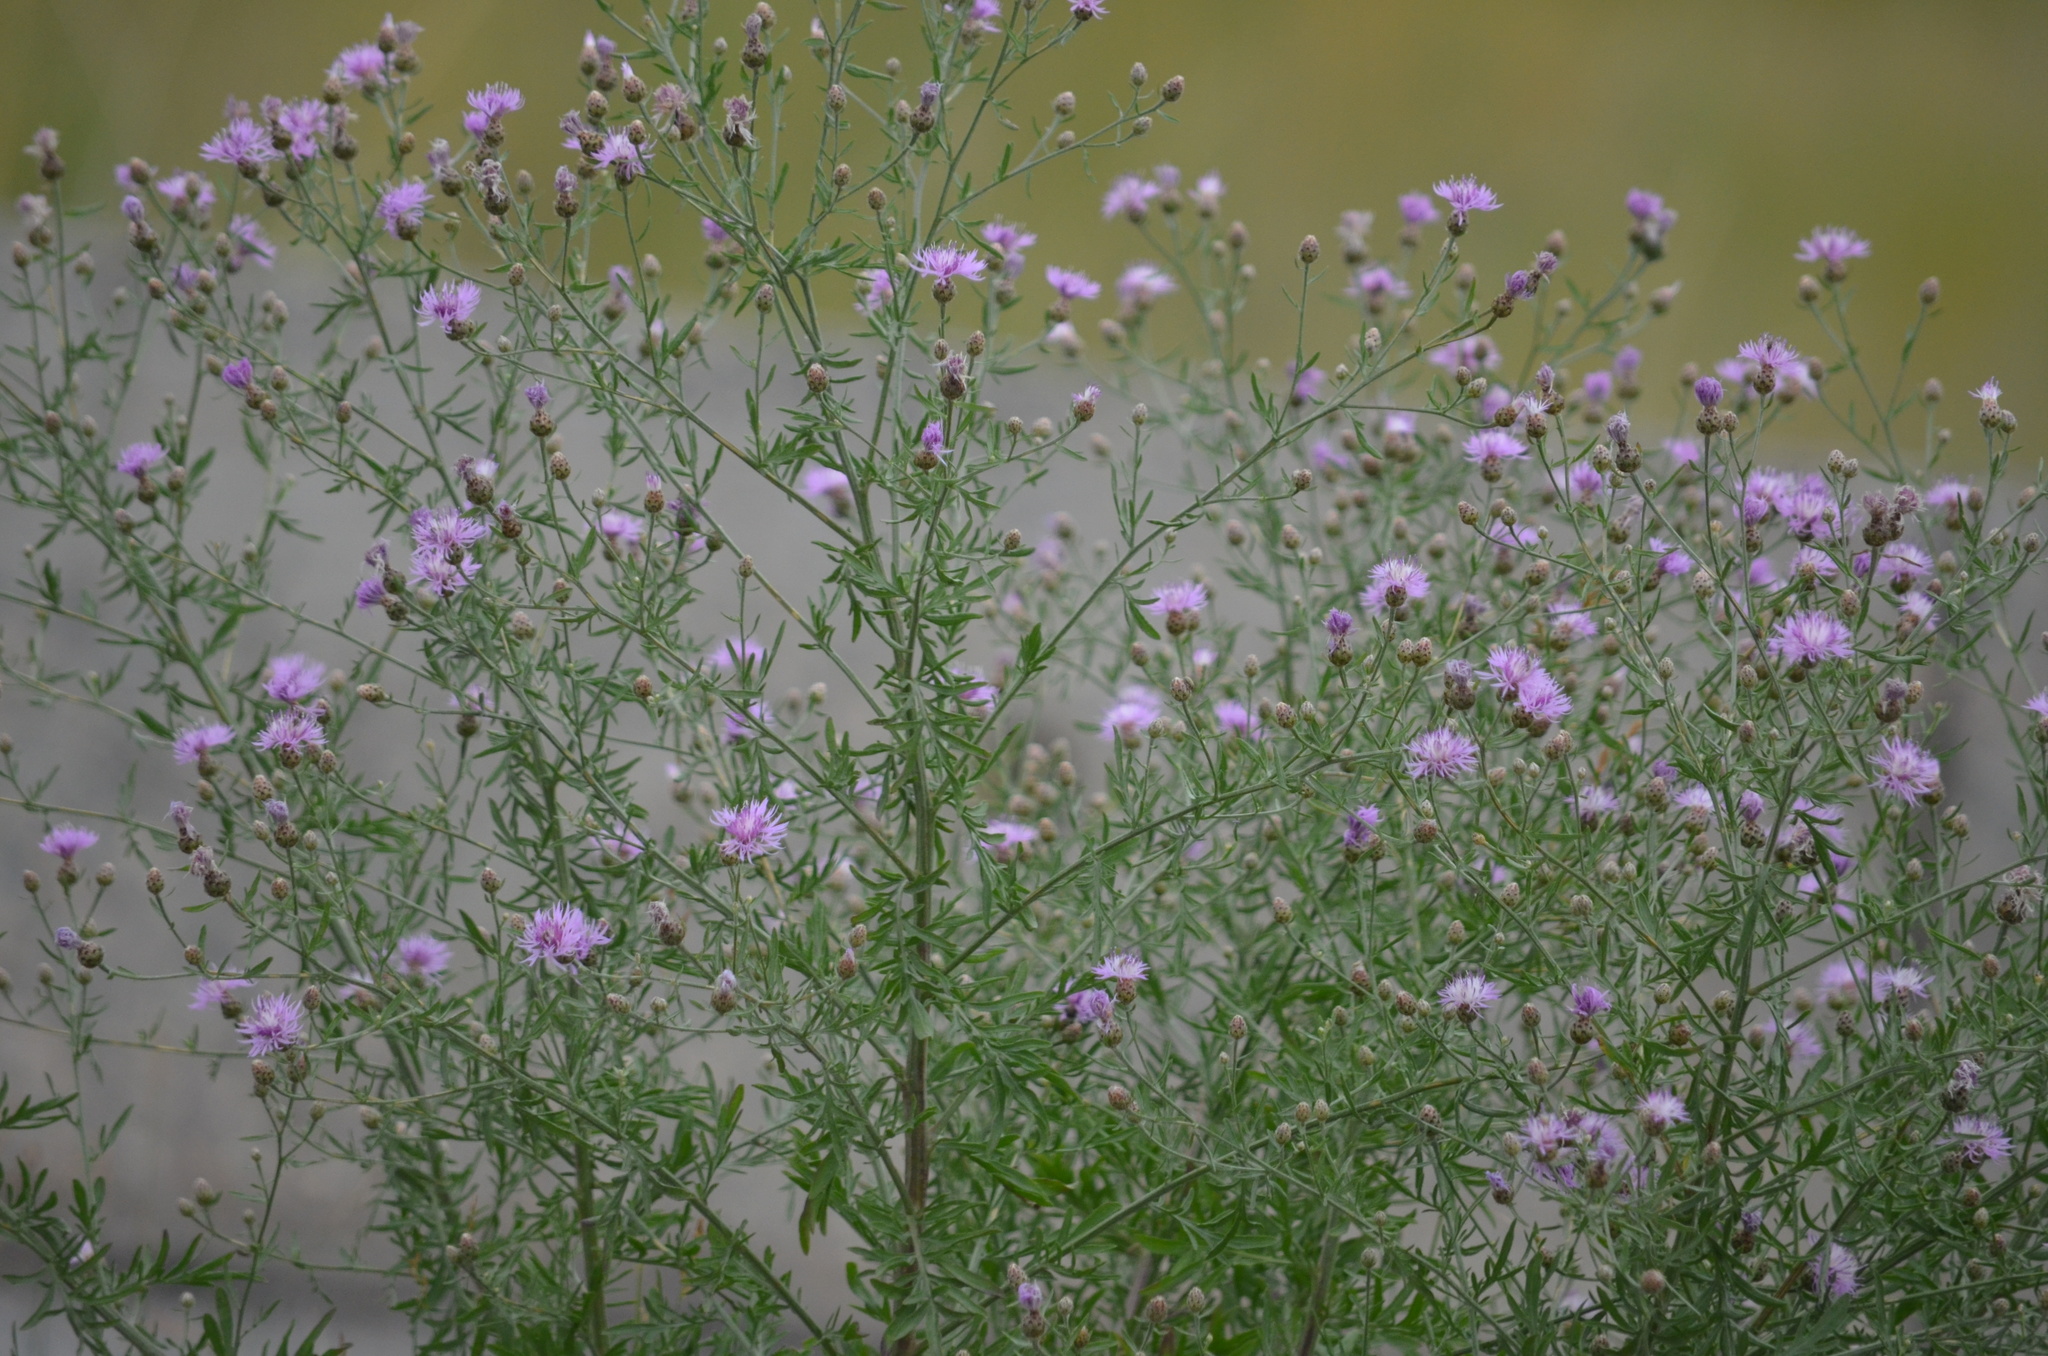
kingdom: Plantae
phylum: Tracheophyta
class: Magnoliopsida
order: Asterales
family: Asteraceae
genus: Centaurea
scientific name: Centaurea stoebe
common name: Spotted knapweed
